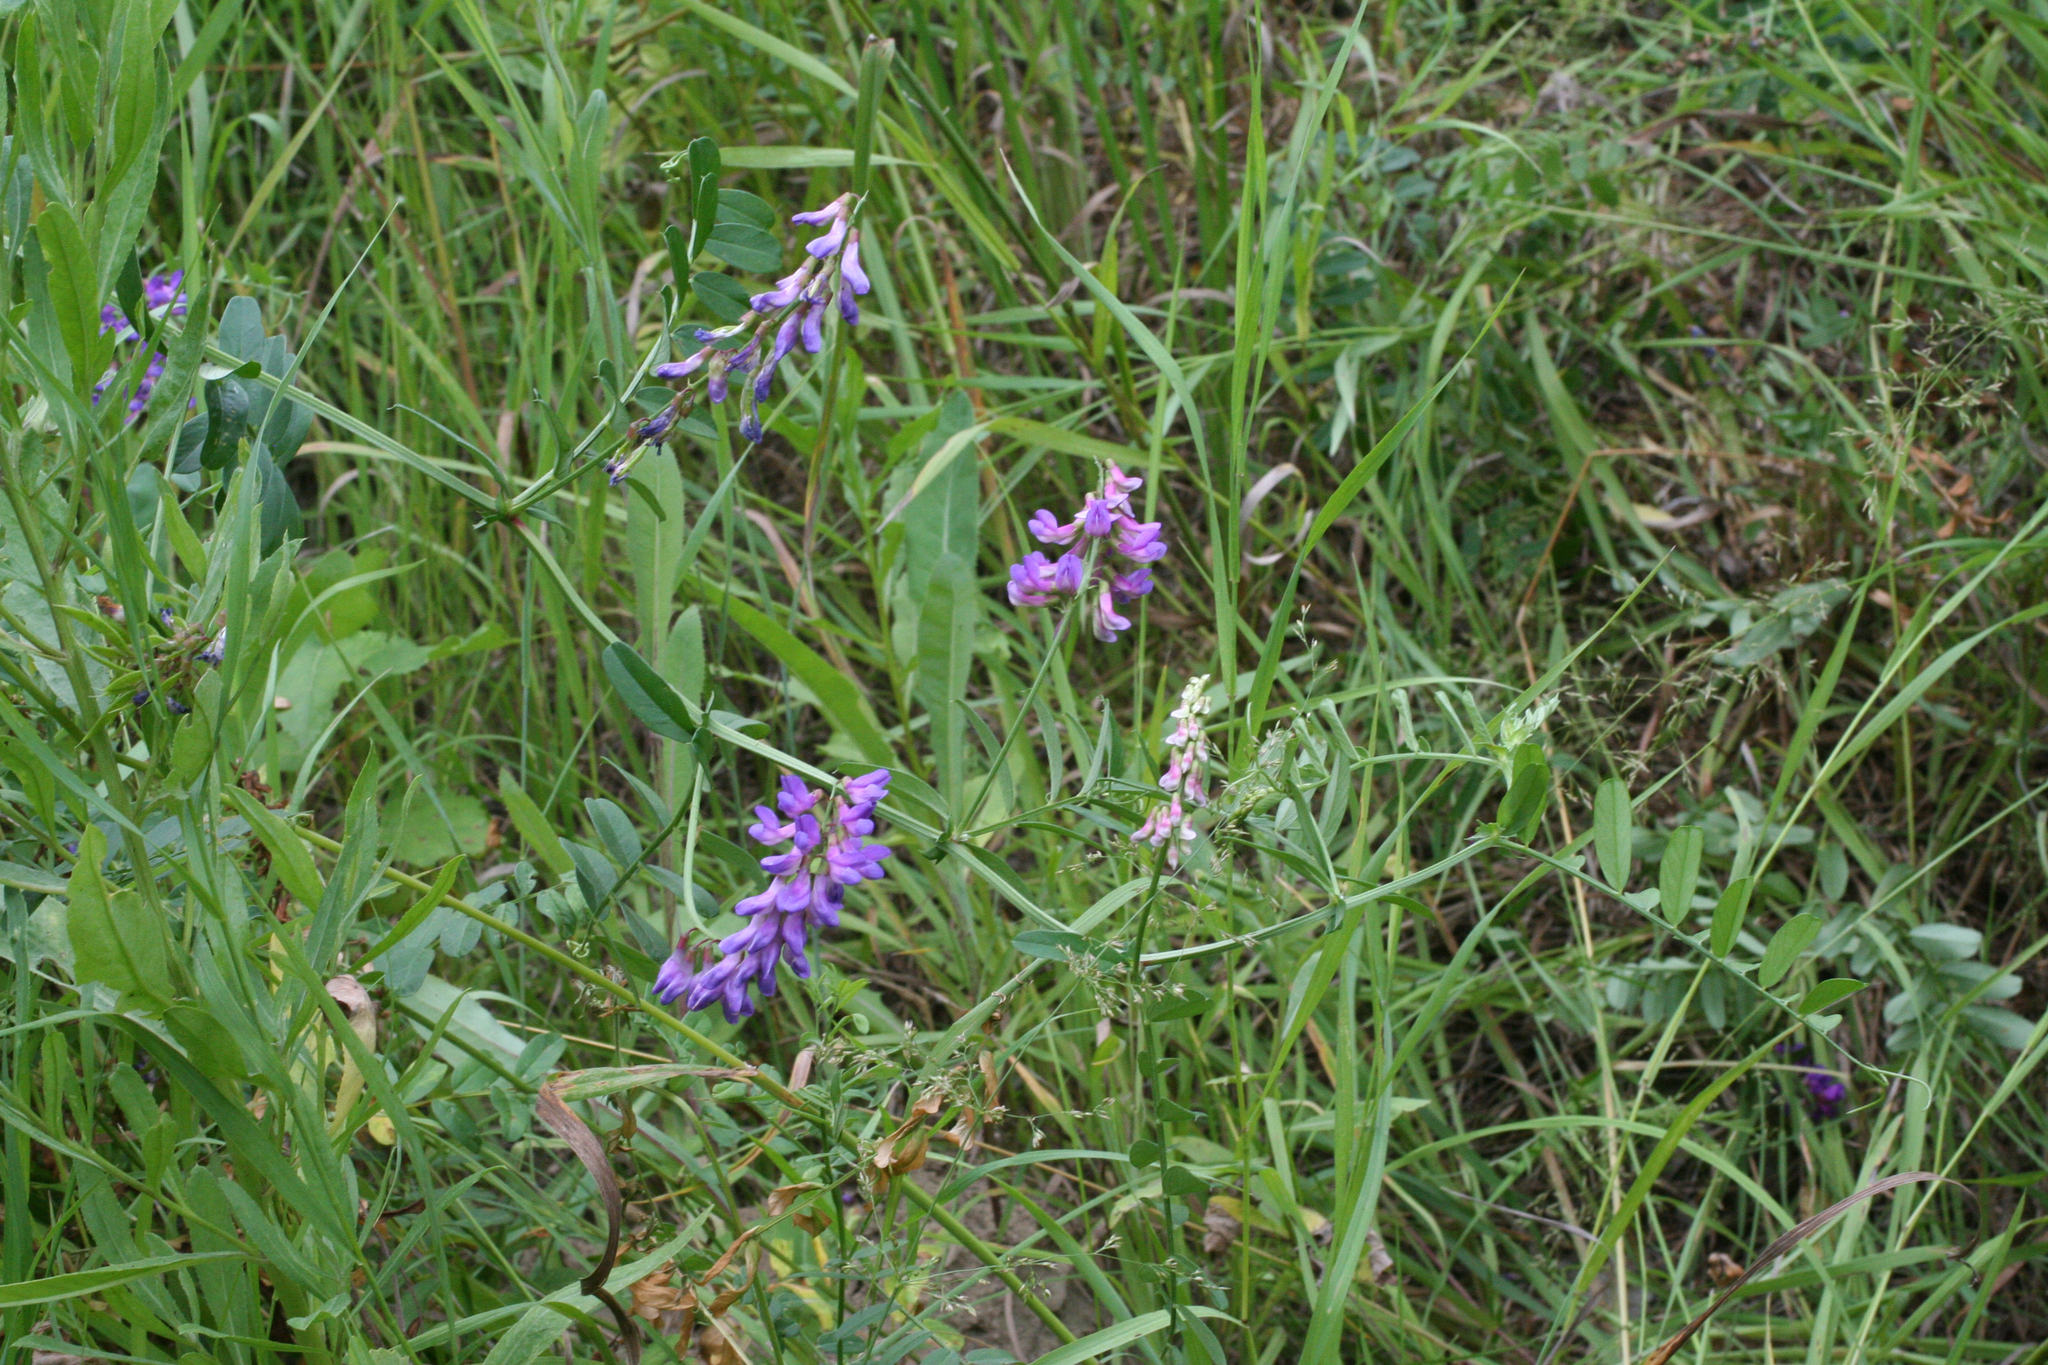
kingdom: Plantae
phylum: Tracheophyta
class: Magnoliopsida
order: Fabales
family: Fabaceae
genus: Vicia
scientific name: Vicia amoena
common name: Cheder ebs
